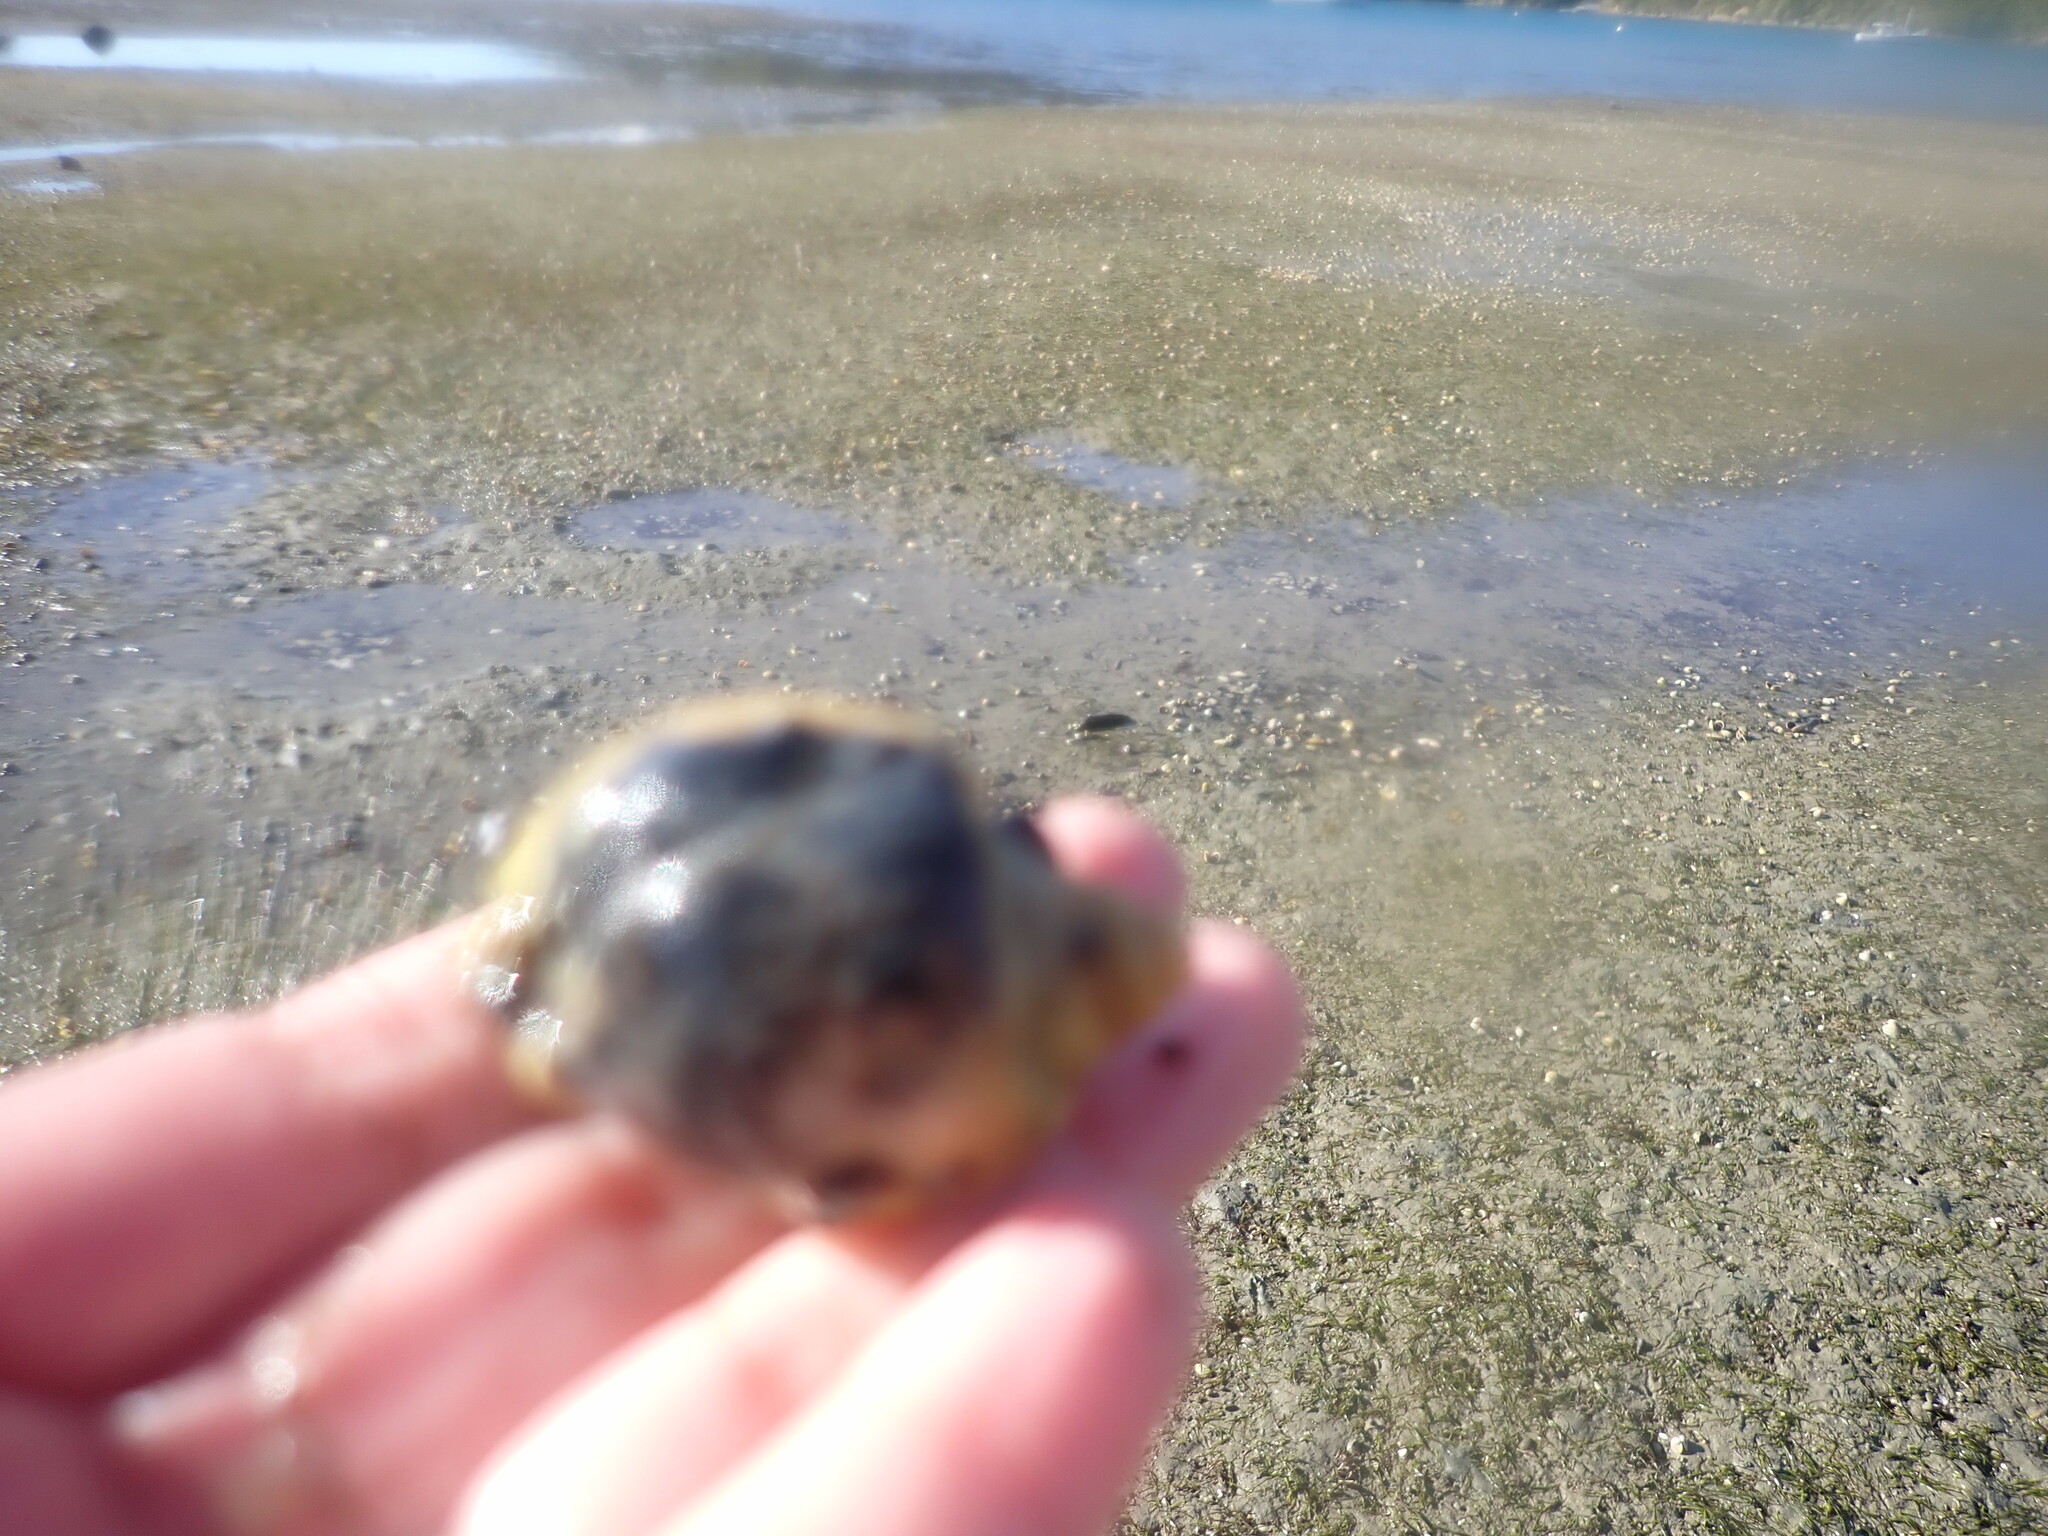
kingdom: Animalia
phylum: Mollusca
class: Gastropoda
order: Neogastropoda
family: Cominellidae
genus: Cominella
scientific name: Cominella adspersa
